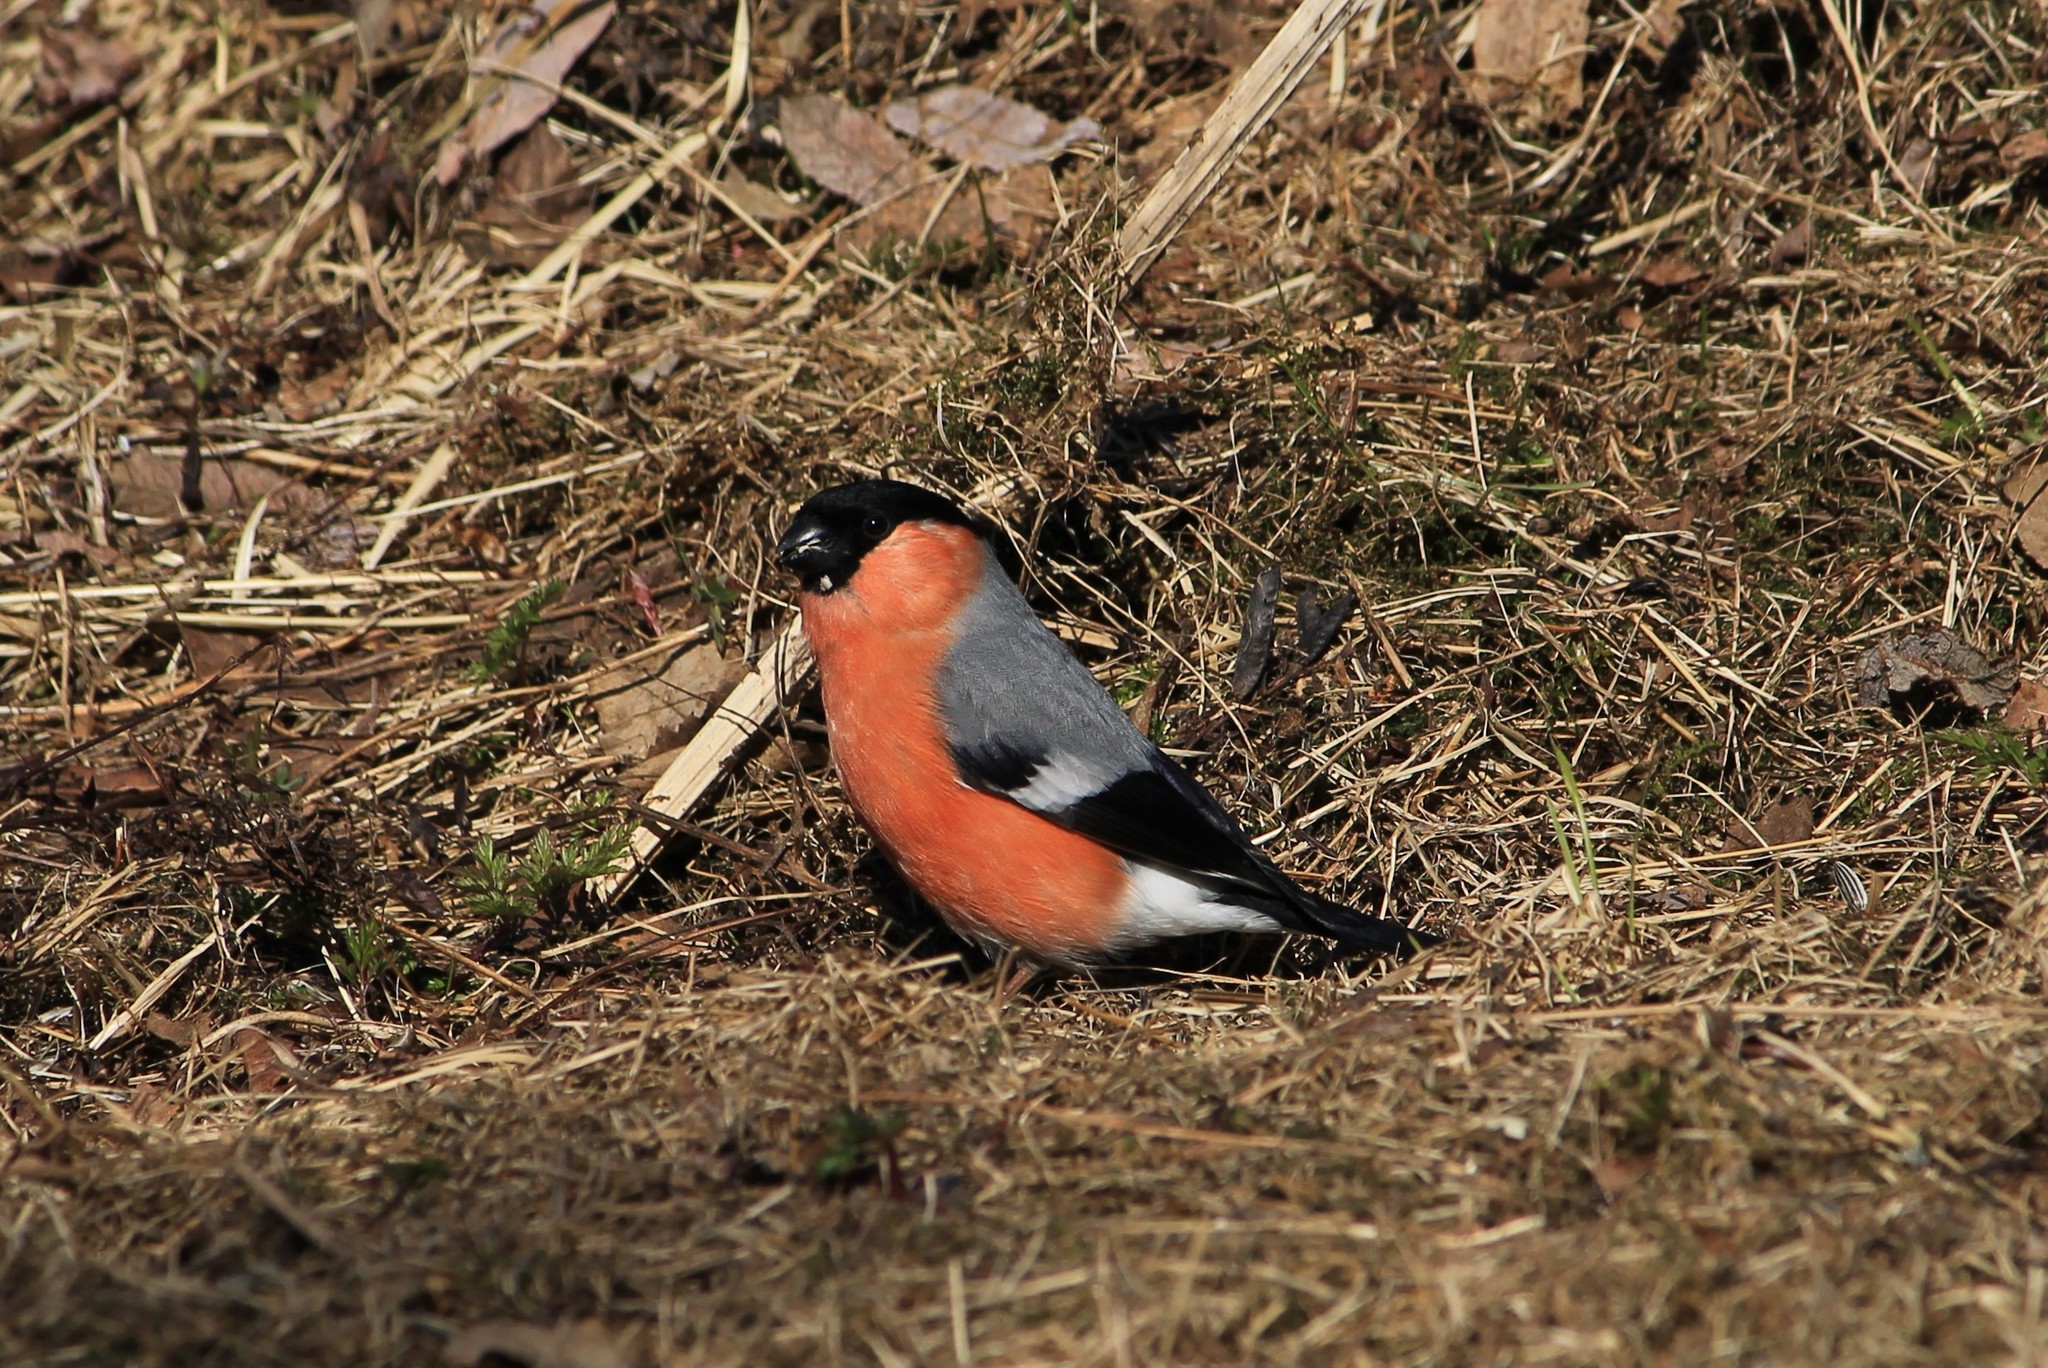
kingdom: Animalia
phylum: Chordata
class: Aves
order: Passeriformes
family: Fringillidae
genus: Pyrrhula
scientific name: Pyrrhula pyrrhula
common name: Eurasian bullfinch
